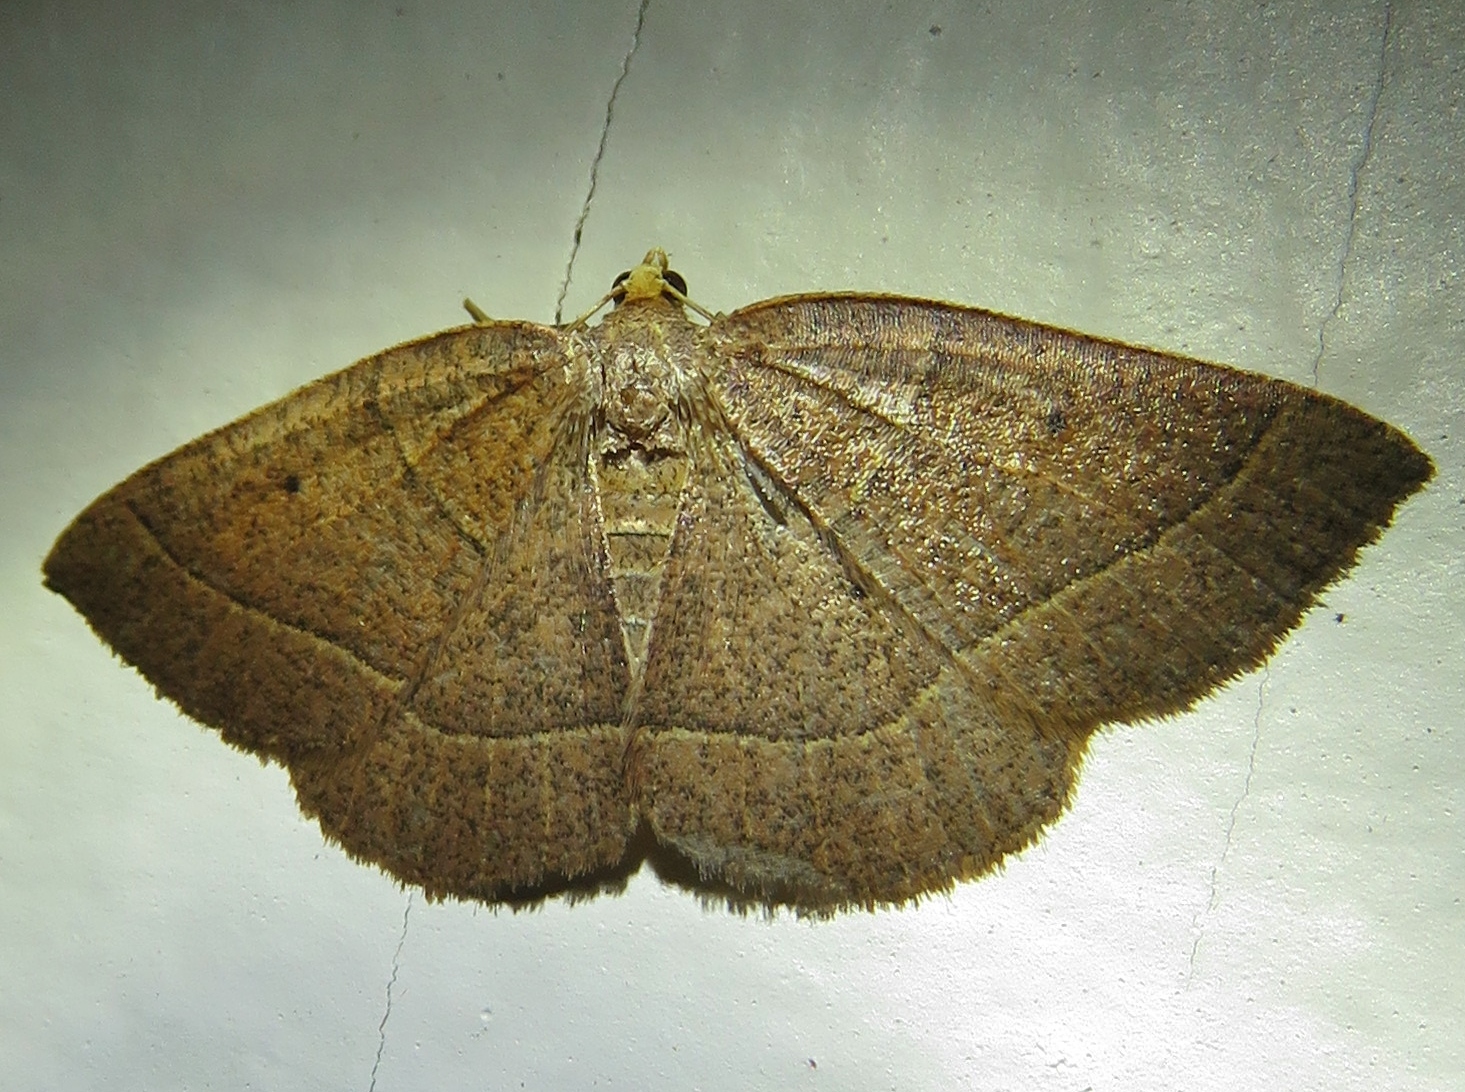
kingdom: Animalia
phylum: Arthropoda
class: Insecta
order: Lepidoptera
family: Geometridae
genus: Episemasia
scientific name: Episemasia cervinaria
